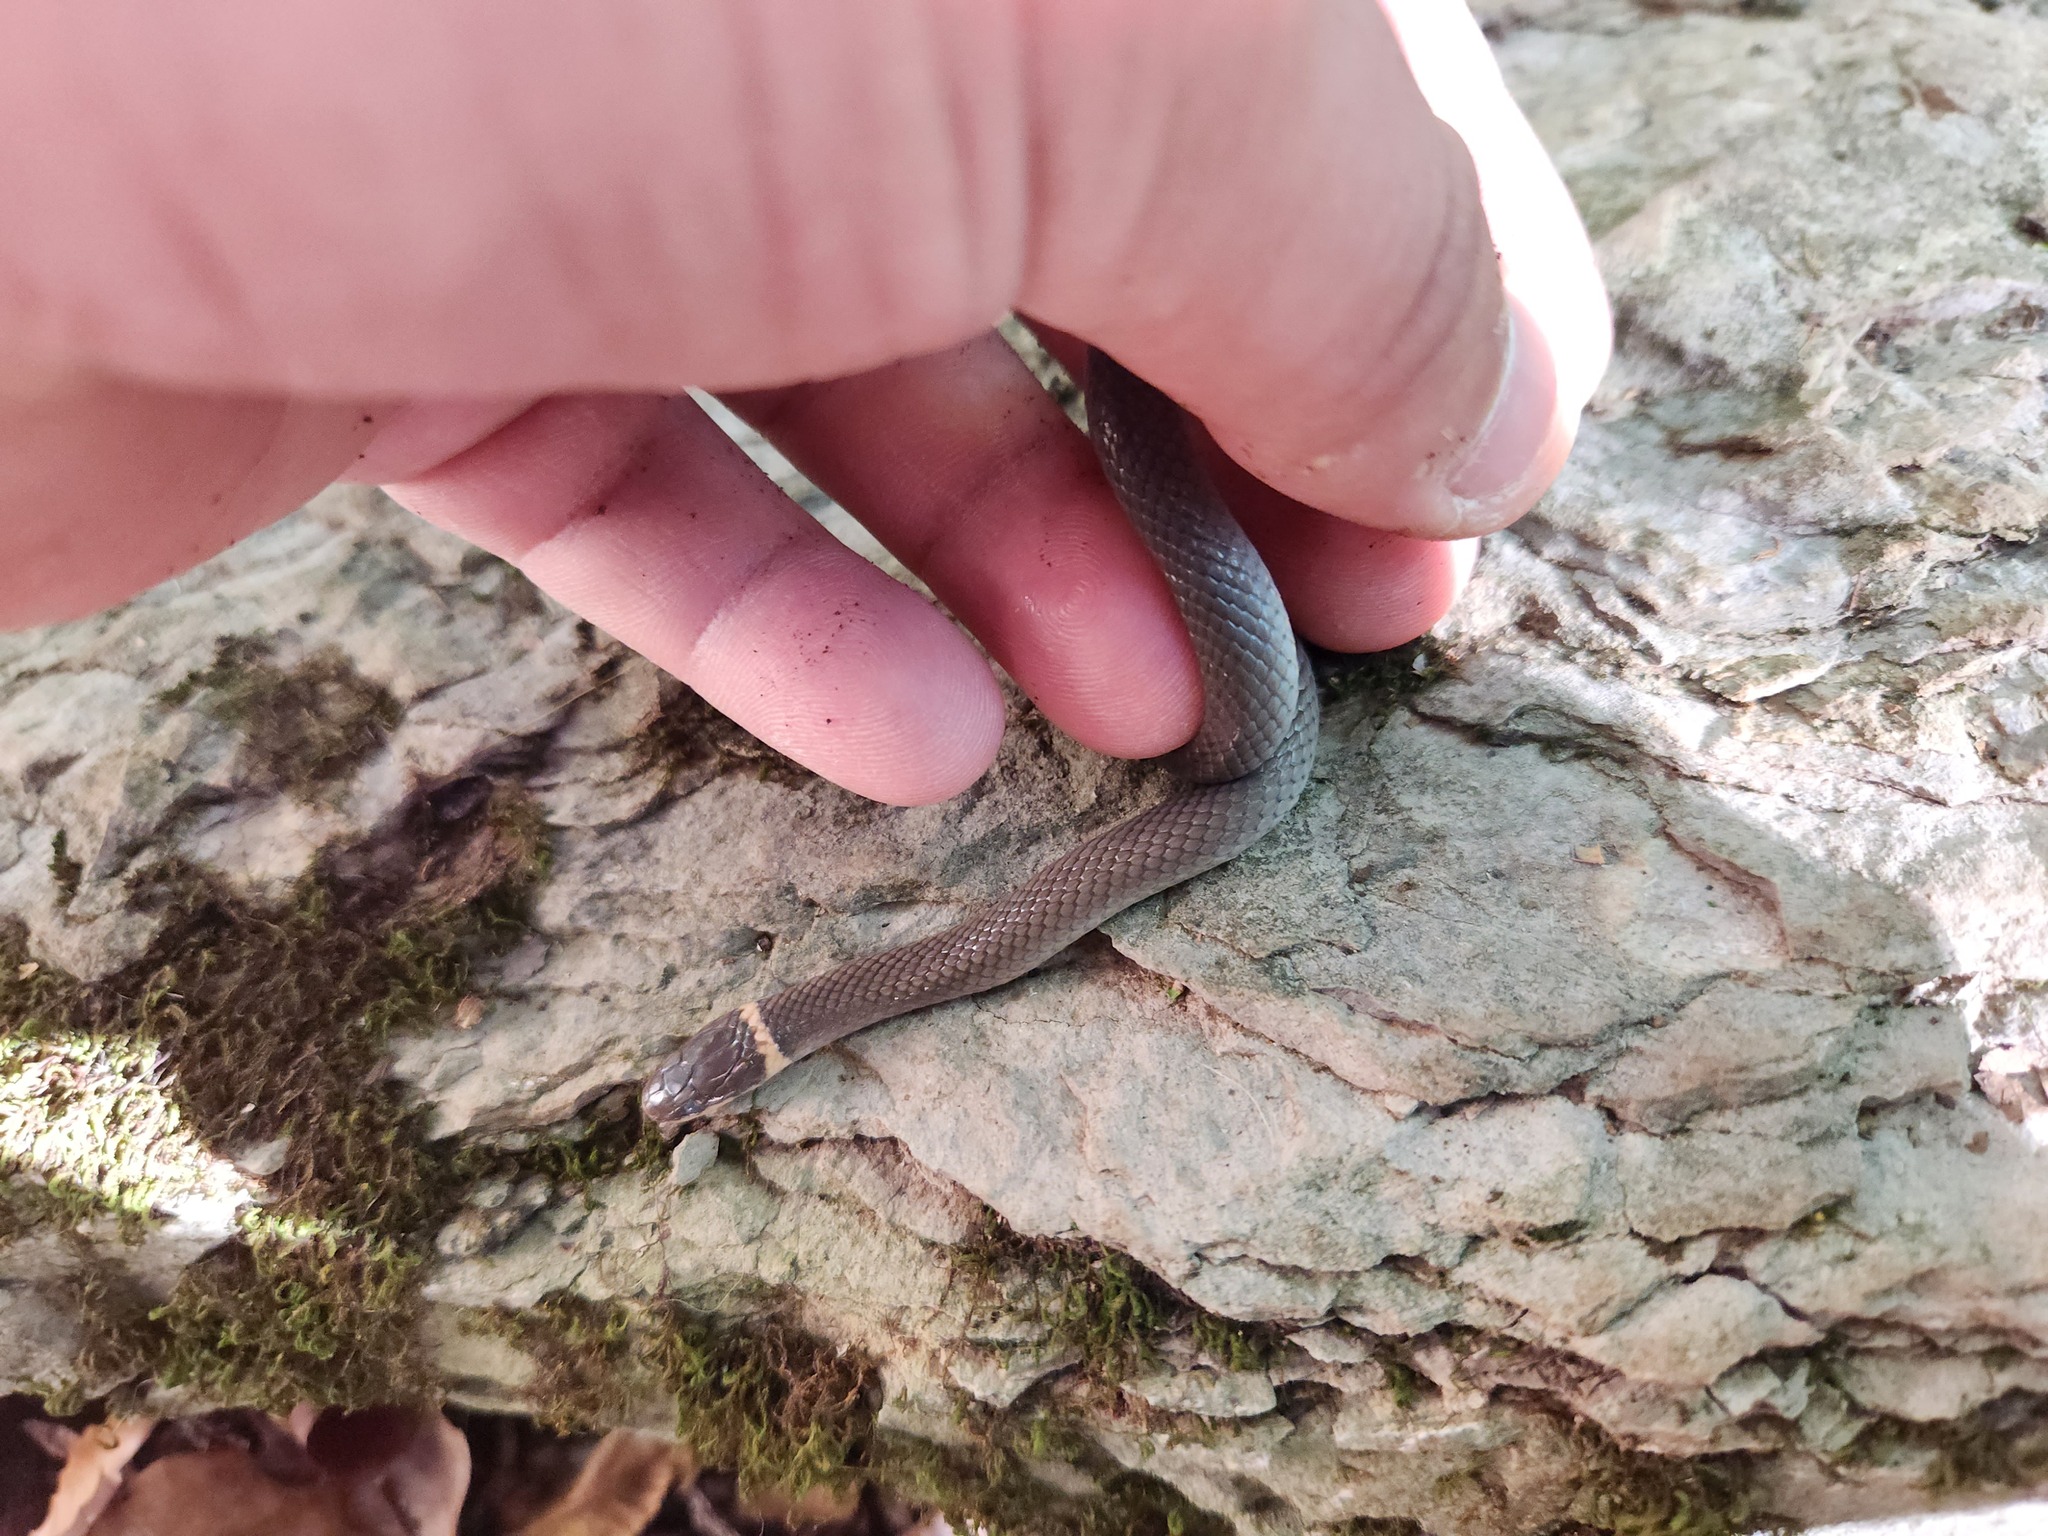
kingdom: Animalia
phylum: Chordata
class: Squamata
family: Colubridae
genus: Diadophis
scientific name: Diadophis punctatus
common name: Ringneck snake
